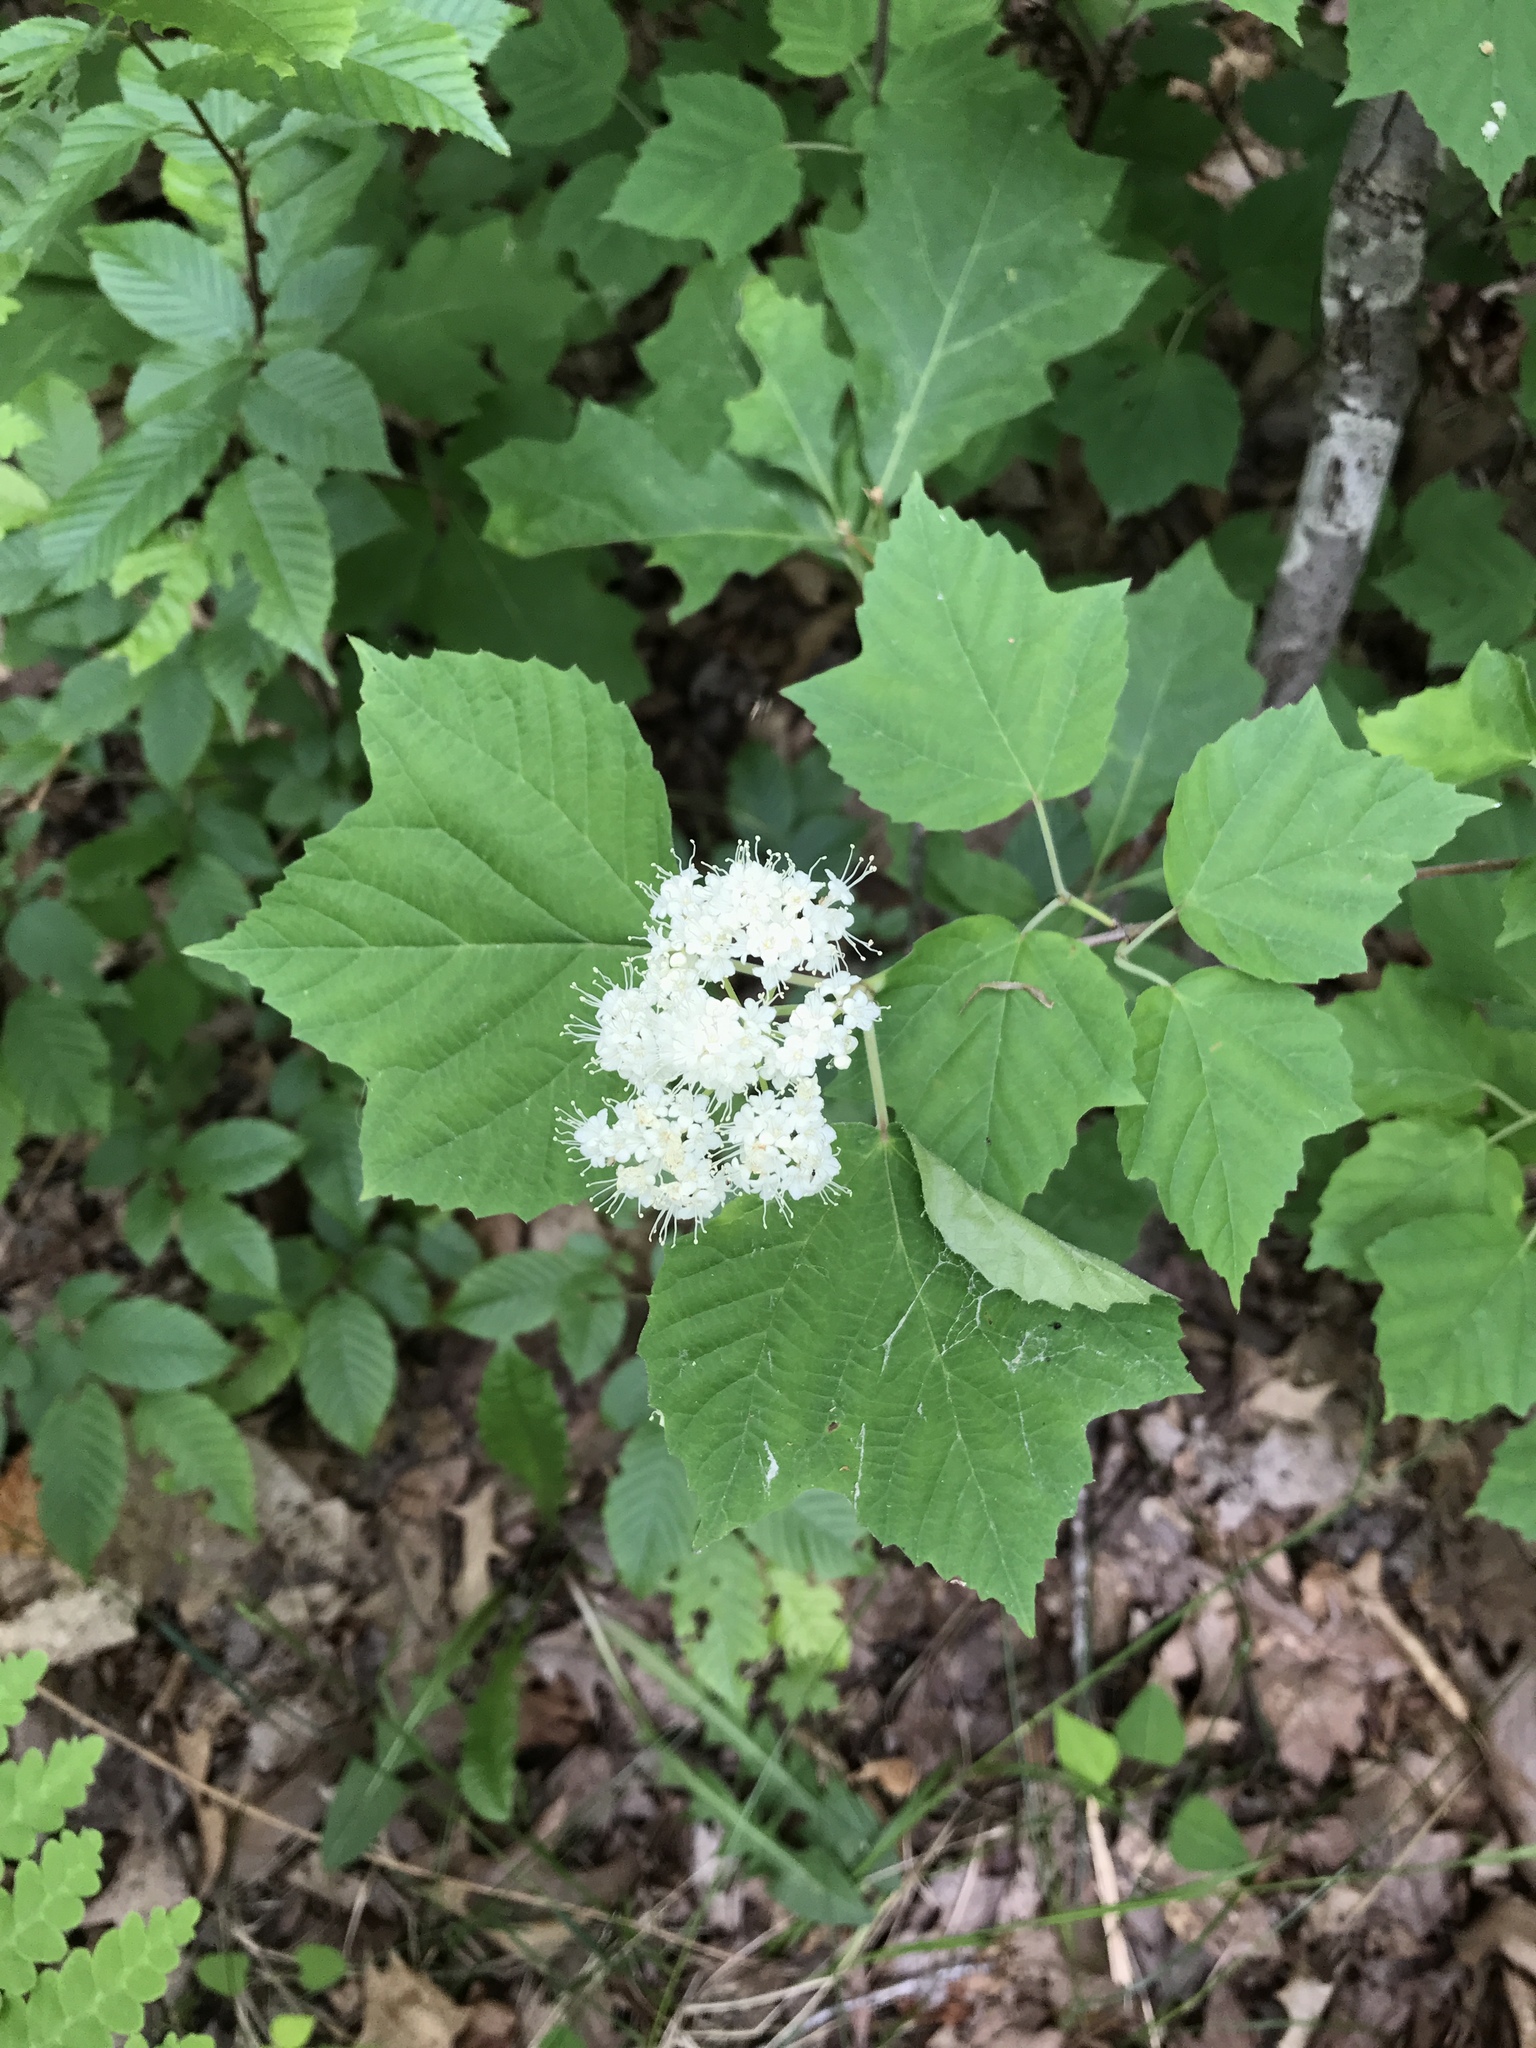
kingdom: Plantae
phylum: Tracheophyta
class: Magnoliopsida
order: Dipsacales
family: Viburnaceae
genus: Viburnum
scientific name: Viburnum acerifolium
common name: Dockmackie
